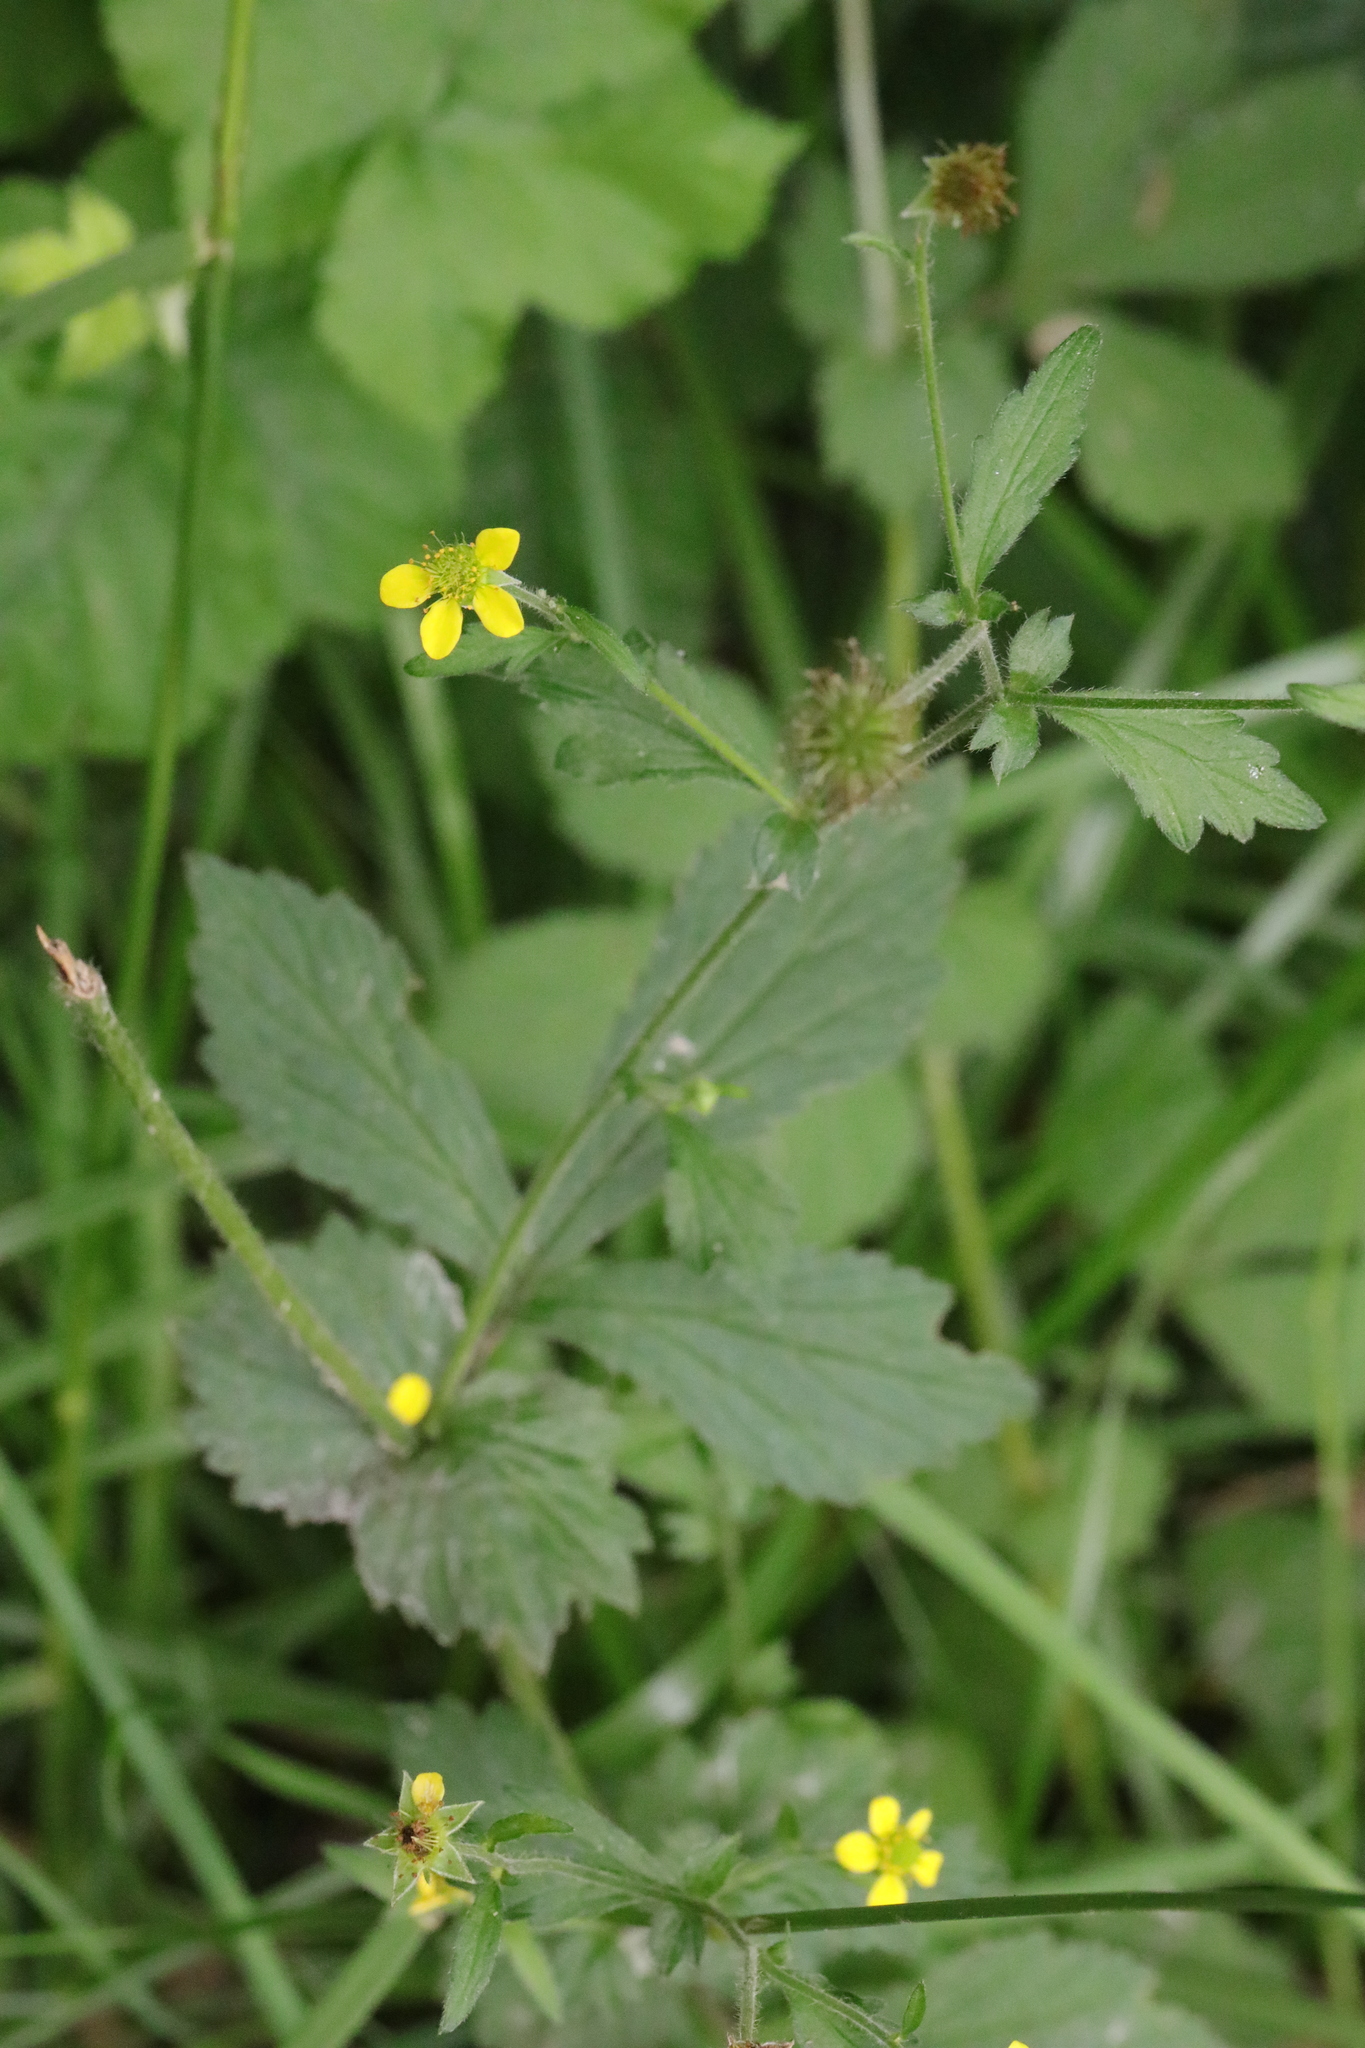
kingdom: Plantae
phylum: Tracheophyta
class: Magnoliopsida
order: Rosales
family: Rosaceae
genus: Geum
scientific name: Geum urbanum
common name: Wood avens
